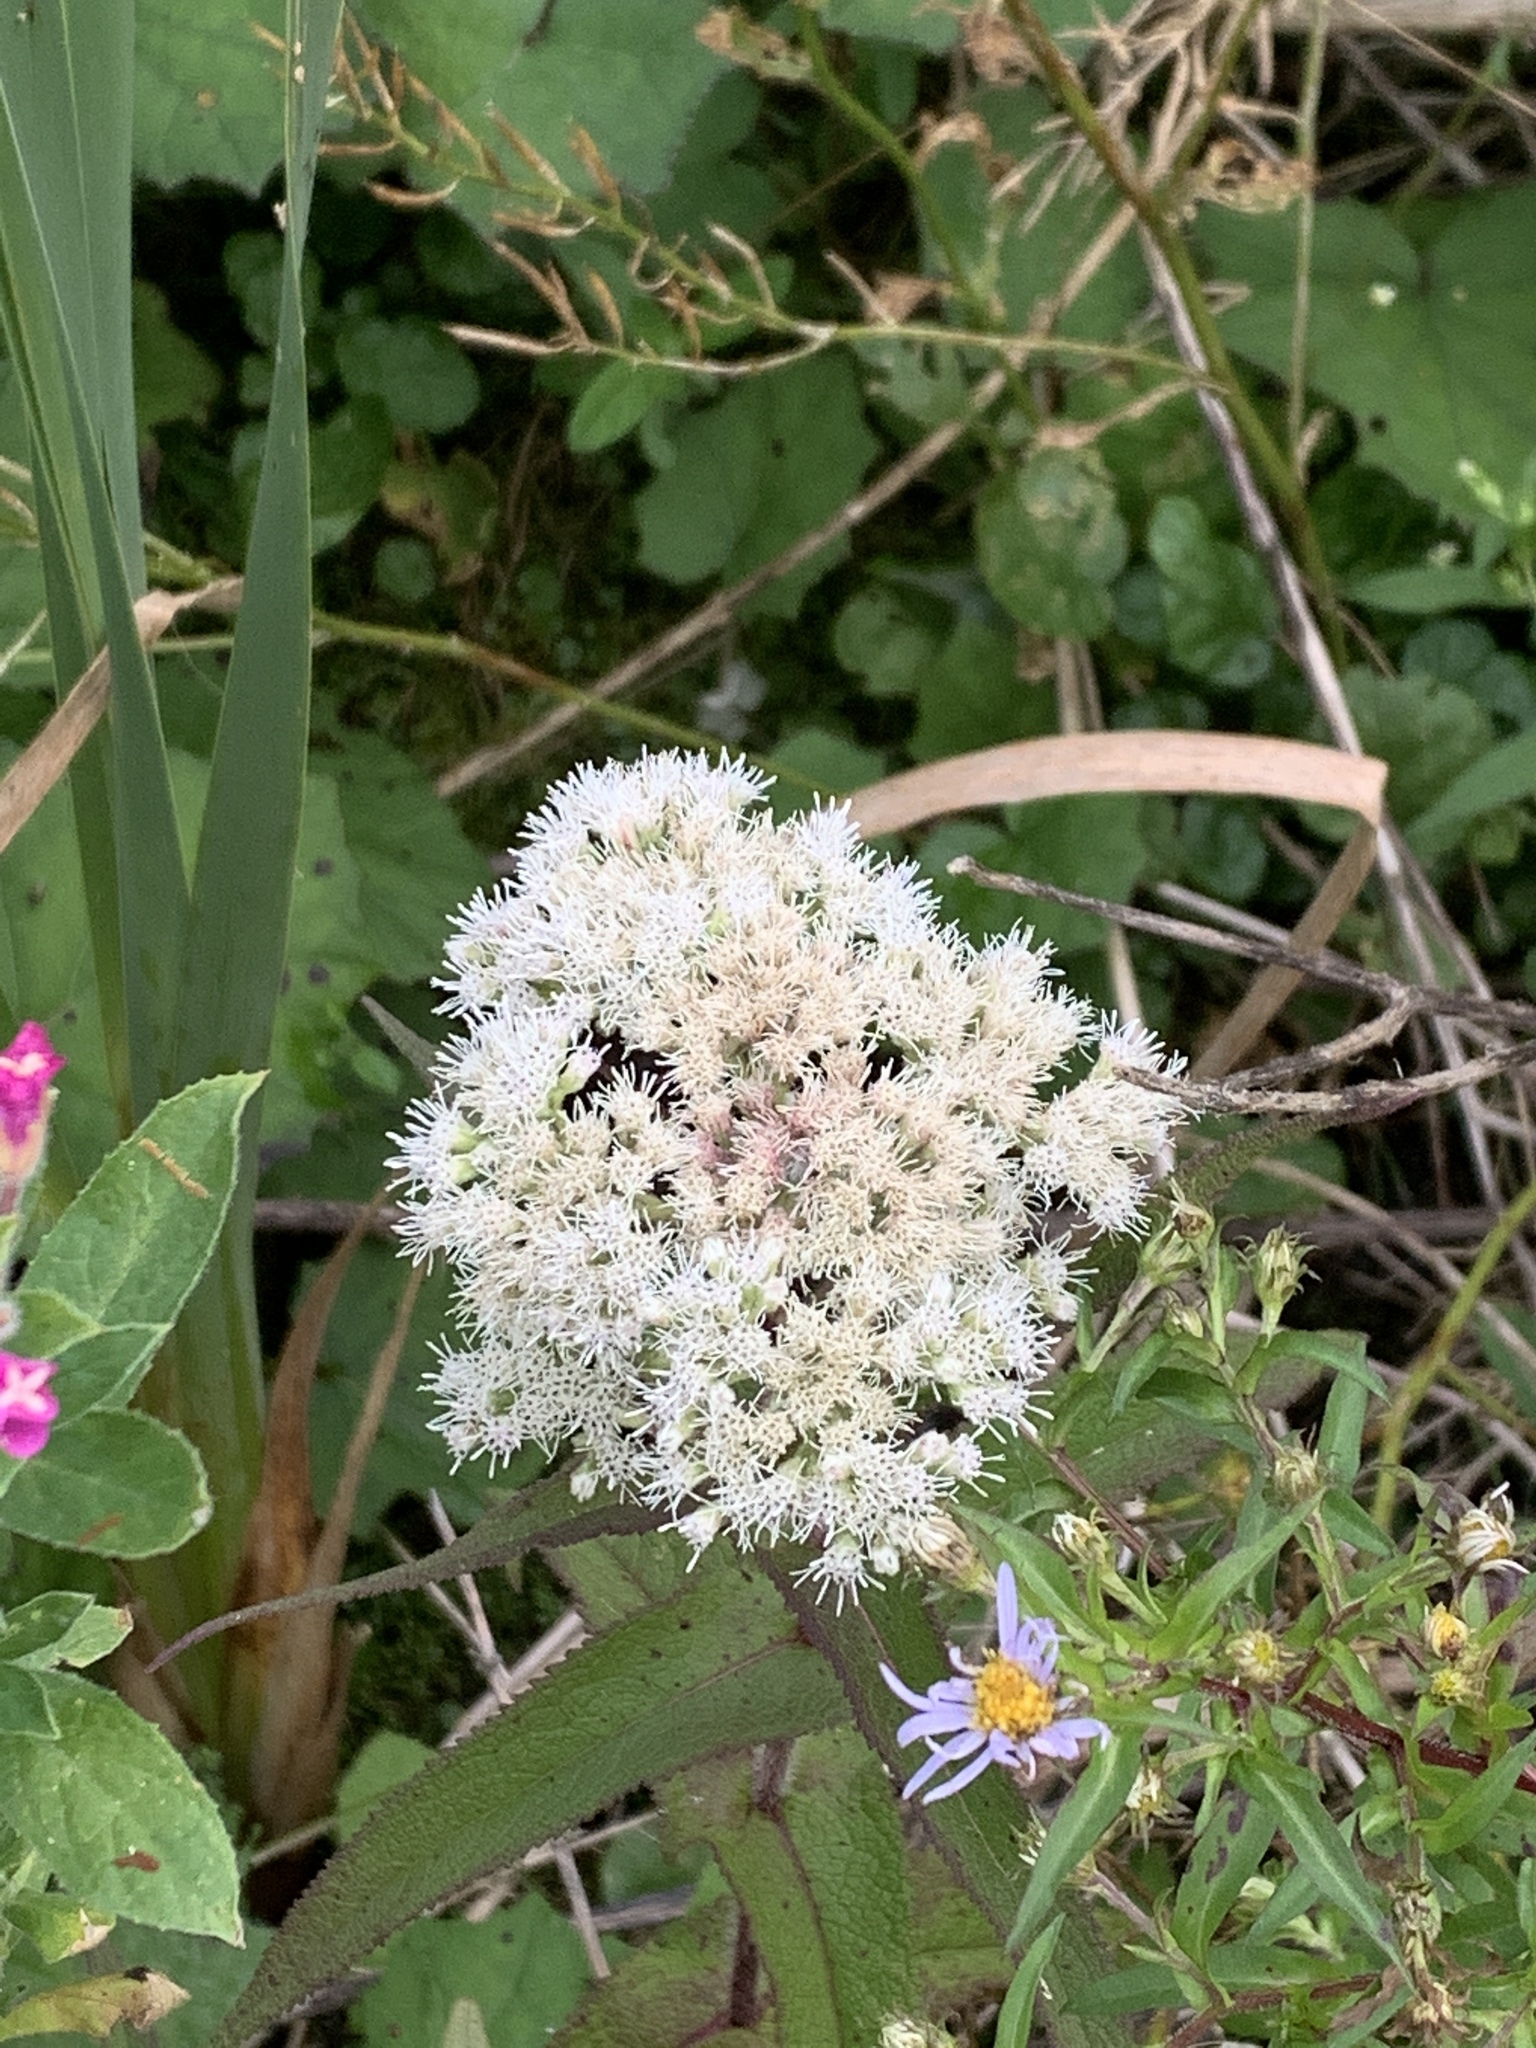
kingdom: Plantae
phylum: Tracheophyta
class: Magnoliopsida
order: Asterales
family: Asteraceae
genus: Eupatorium
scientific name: Eupatorium perfoliatum
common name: Boneset
